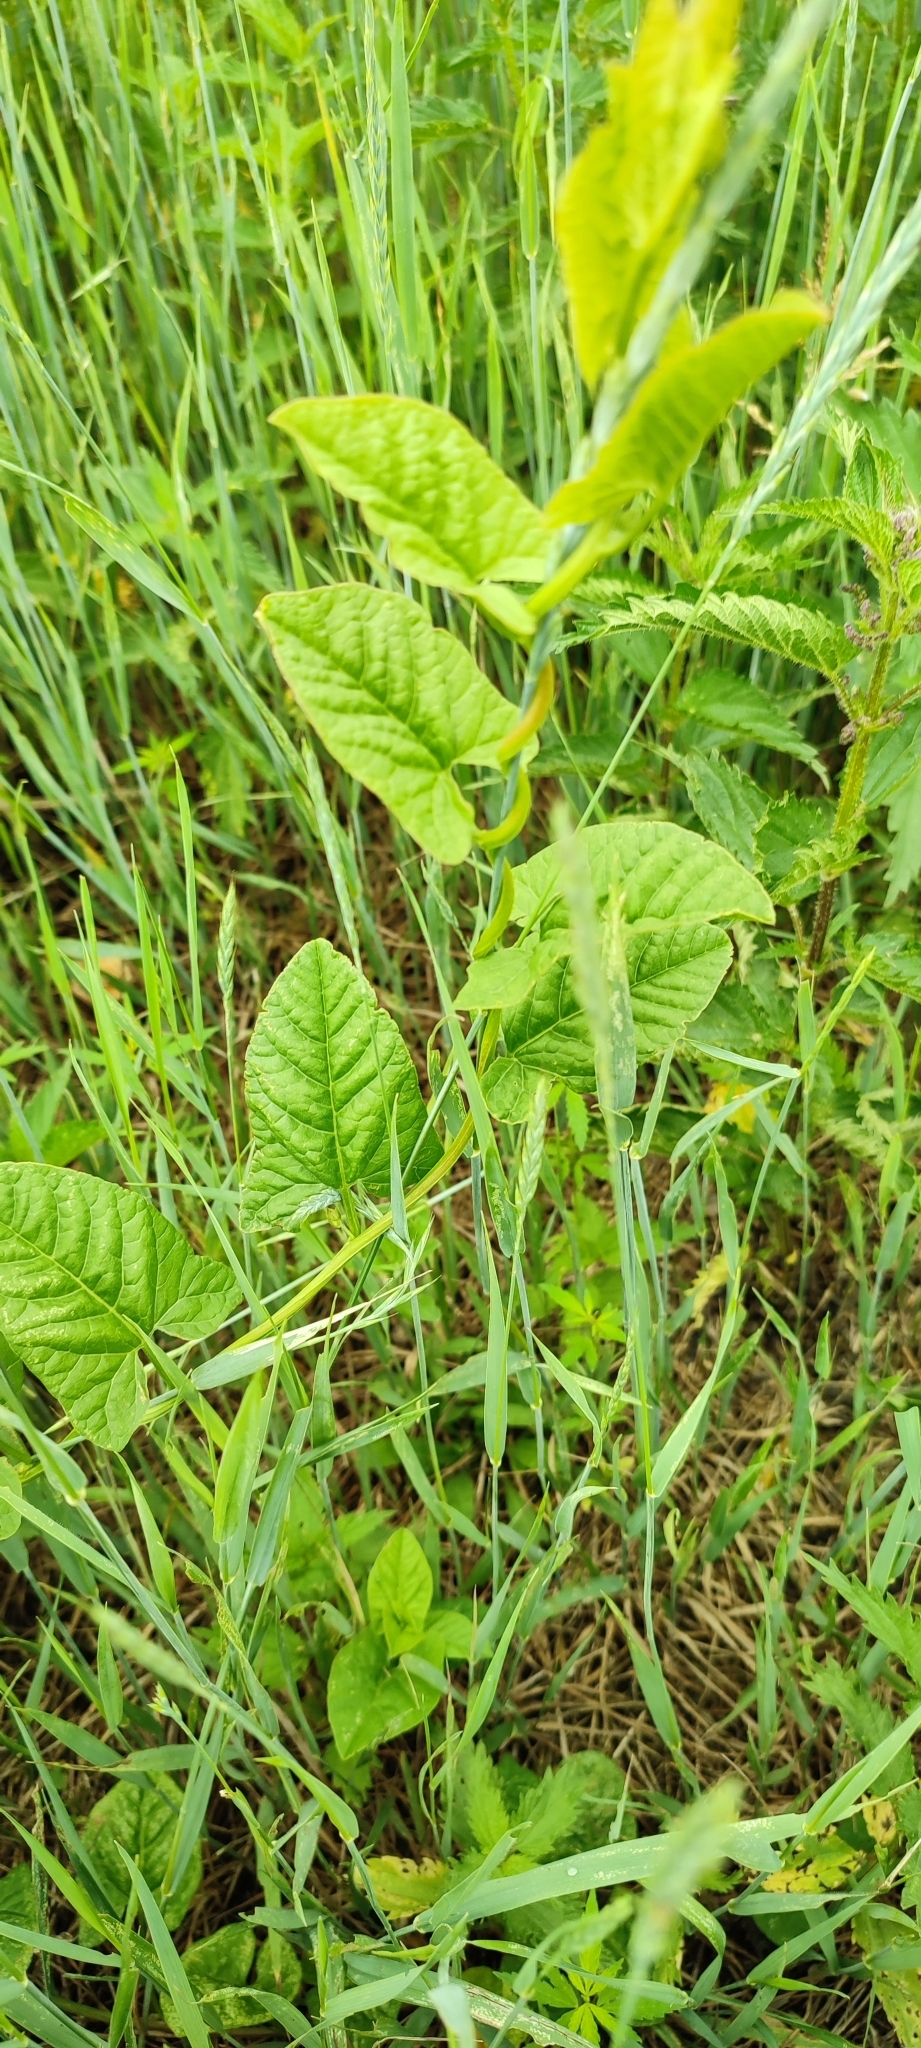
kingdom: Plantae
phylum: Tracheophyta
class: Magnoliopsida
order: Solanales
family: Convolvulaceae
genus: Convolvulus
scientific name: Convolvulus arvensis
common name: Field bindweed
